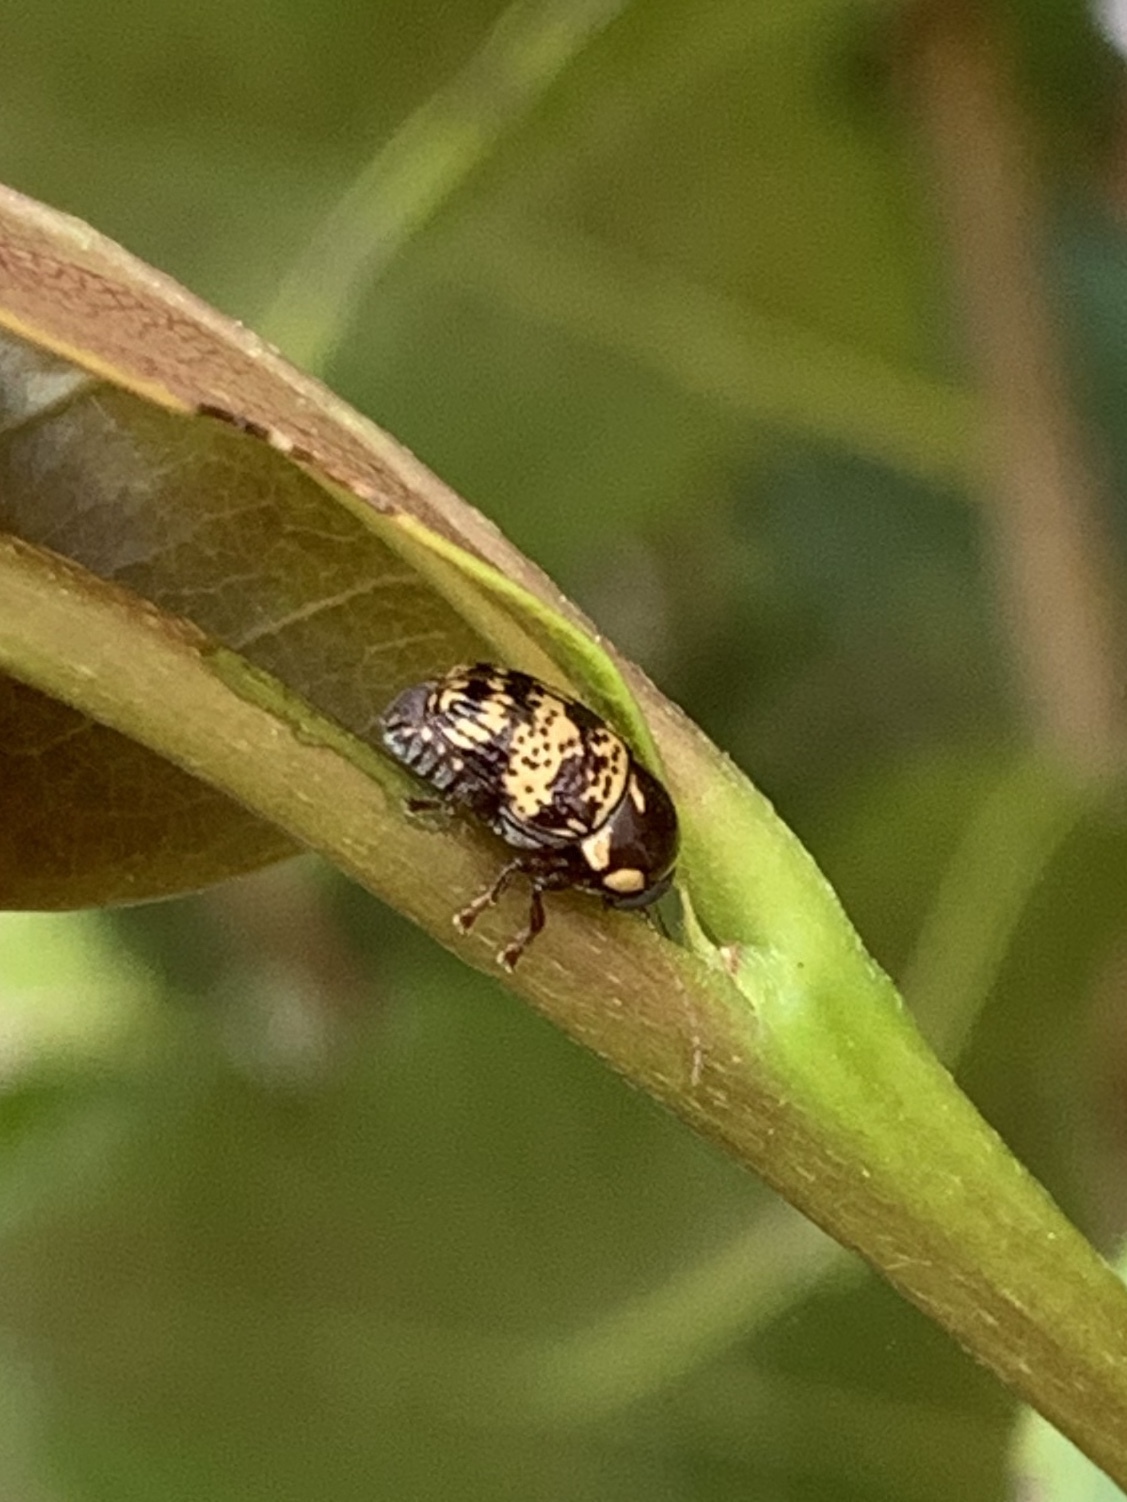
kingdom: Animalia
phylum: Arthropoda
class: Insecta
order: Coleoptera
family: Chrysomelidae
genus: Cryptocephalus
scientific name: Cryptocephalus irroratus
